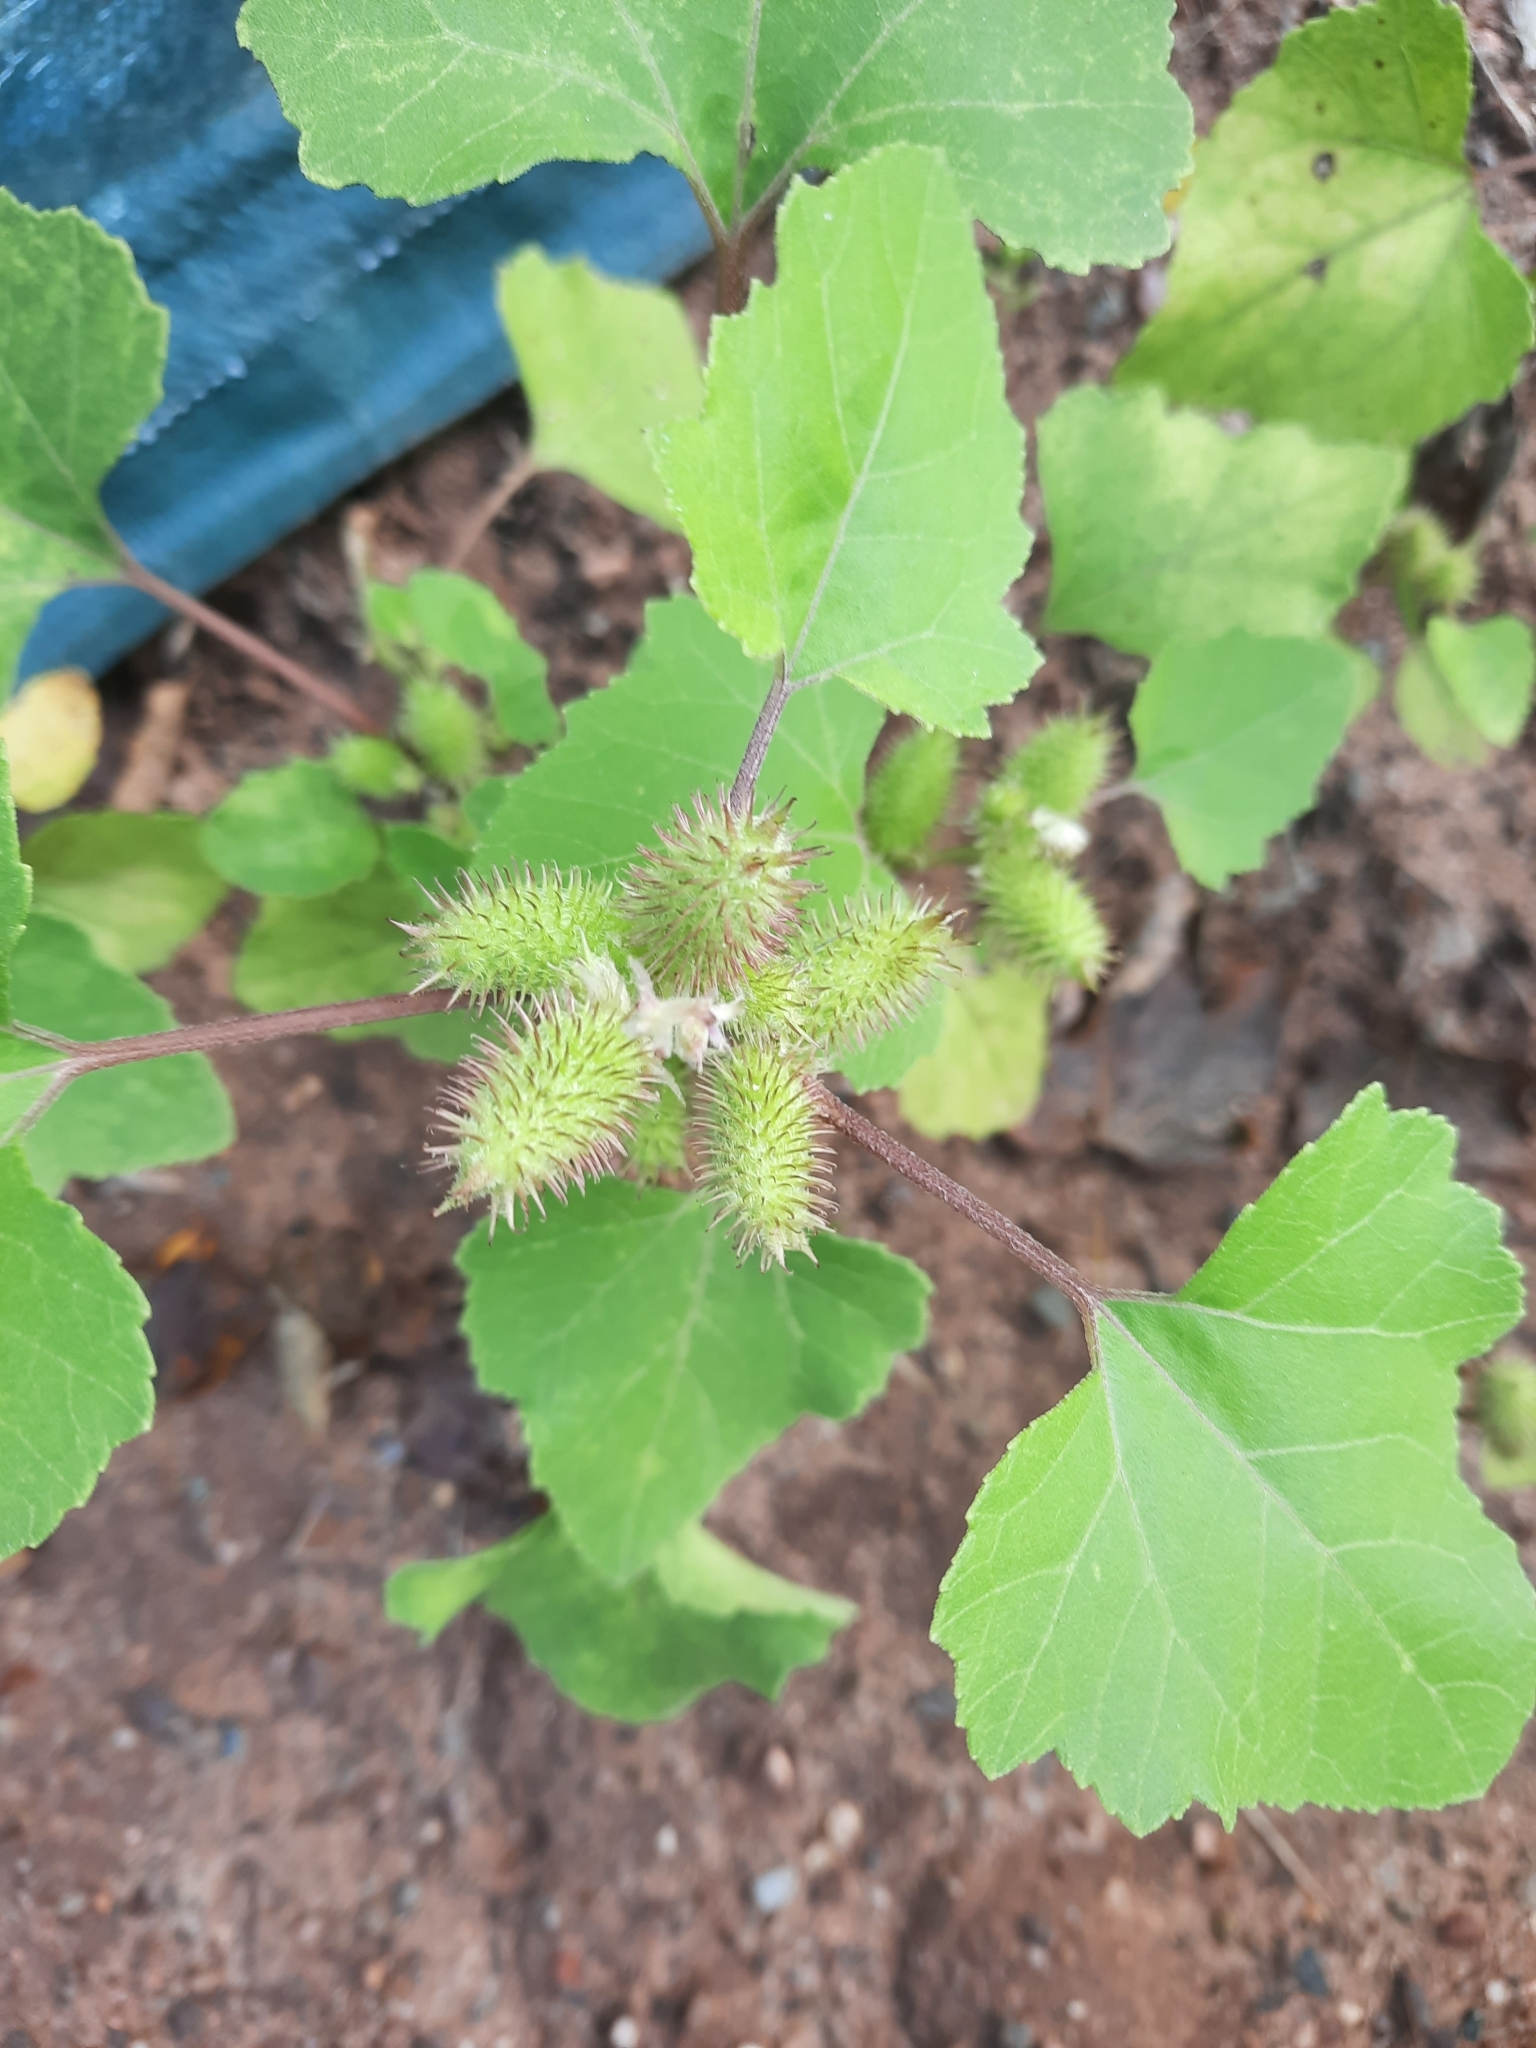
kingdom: Plantae
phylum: Tracheophyta
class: Magnoliopsida
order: Asterales
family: Asteraceae
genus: Xanthium
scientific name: Xanthium strumarium
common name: Rough cocklebur
